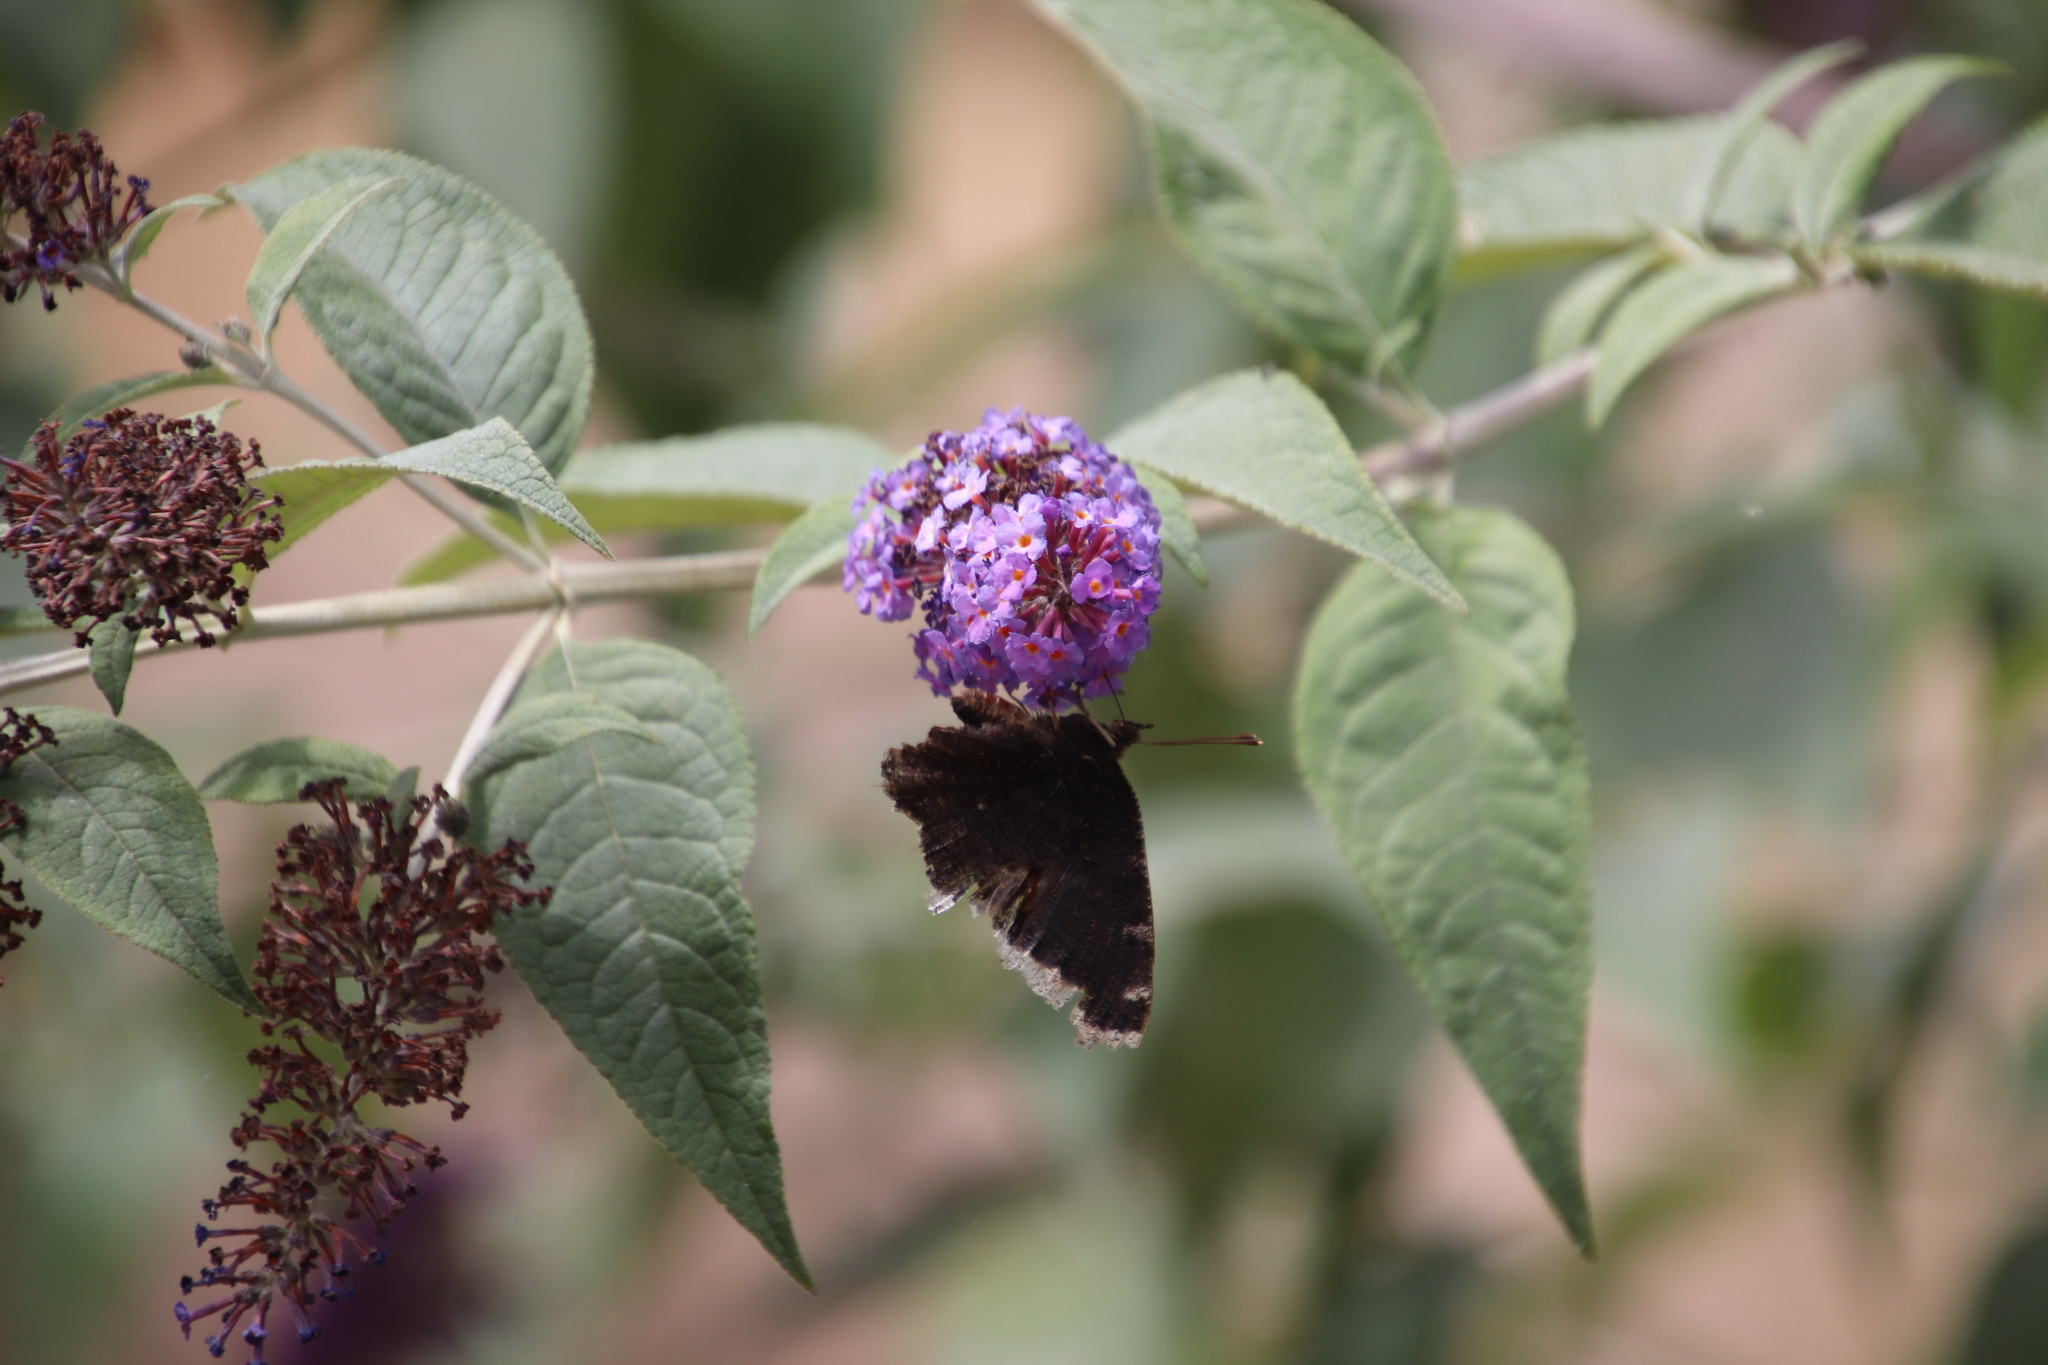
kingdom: Animalia
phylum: Arthropoda
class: Insecta
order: Lepidoptera
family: Nymphalidae
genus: Nymphalis
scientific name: Nymphalis antiopa
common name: Camberwell beauty
